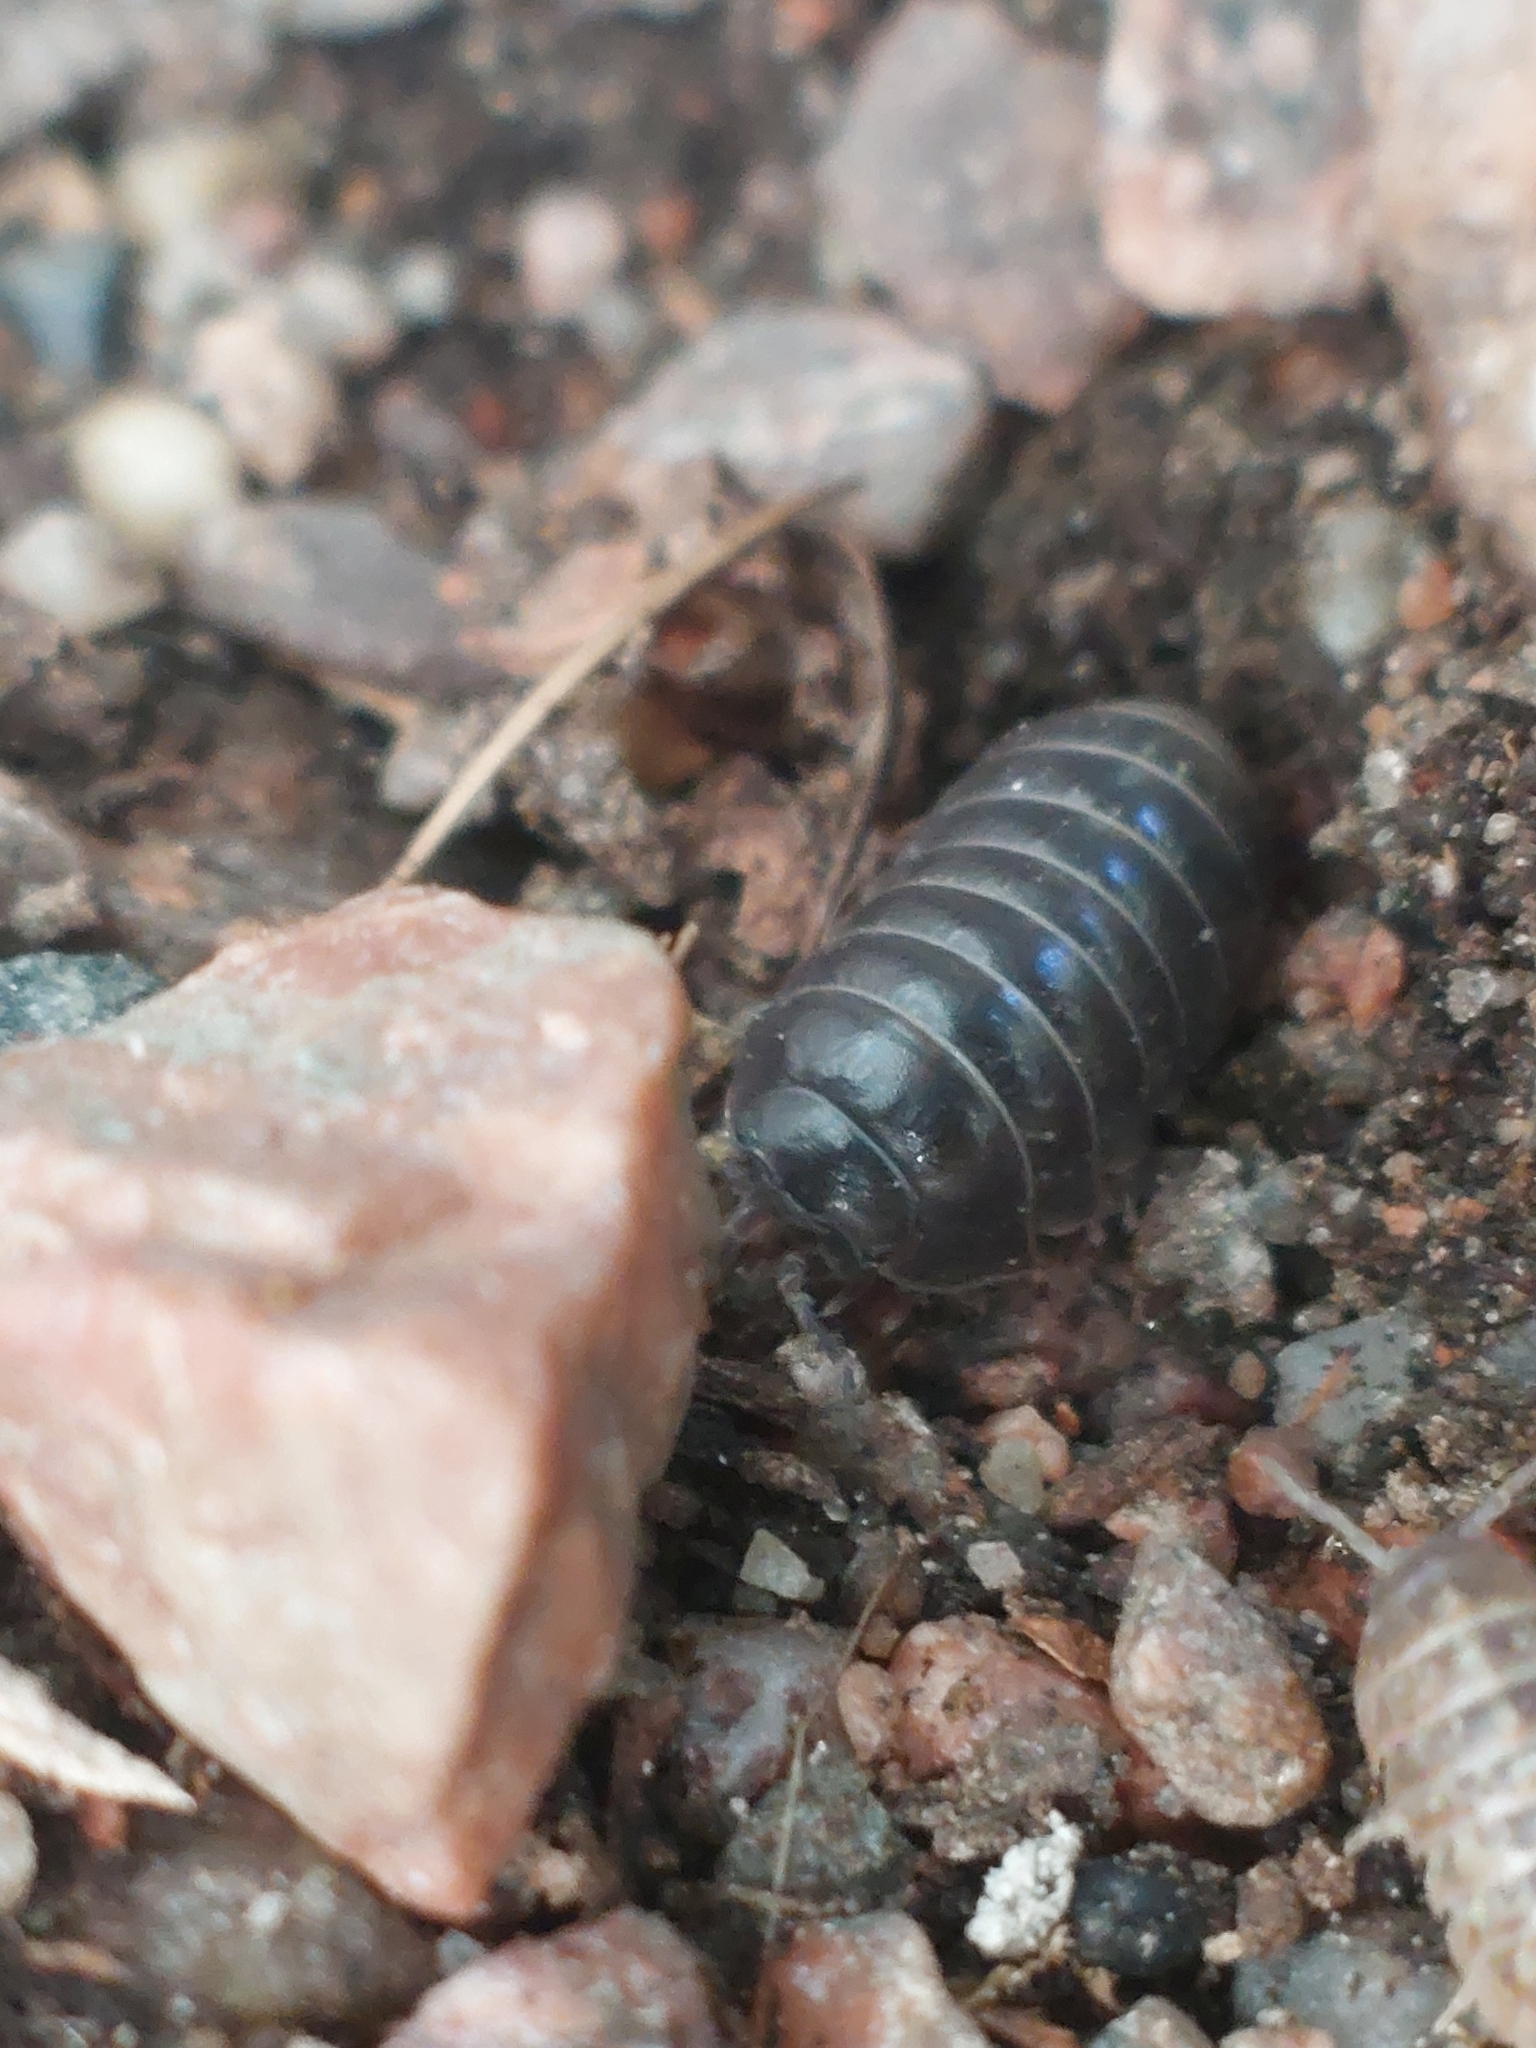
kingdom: Animalia
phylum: Arthropoda
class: Malacostraca
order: Isopoda
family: Armadillidiidae
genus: Armadillidium
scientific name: Armadillidium vulgare
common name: Common pill woodlouse
